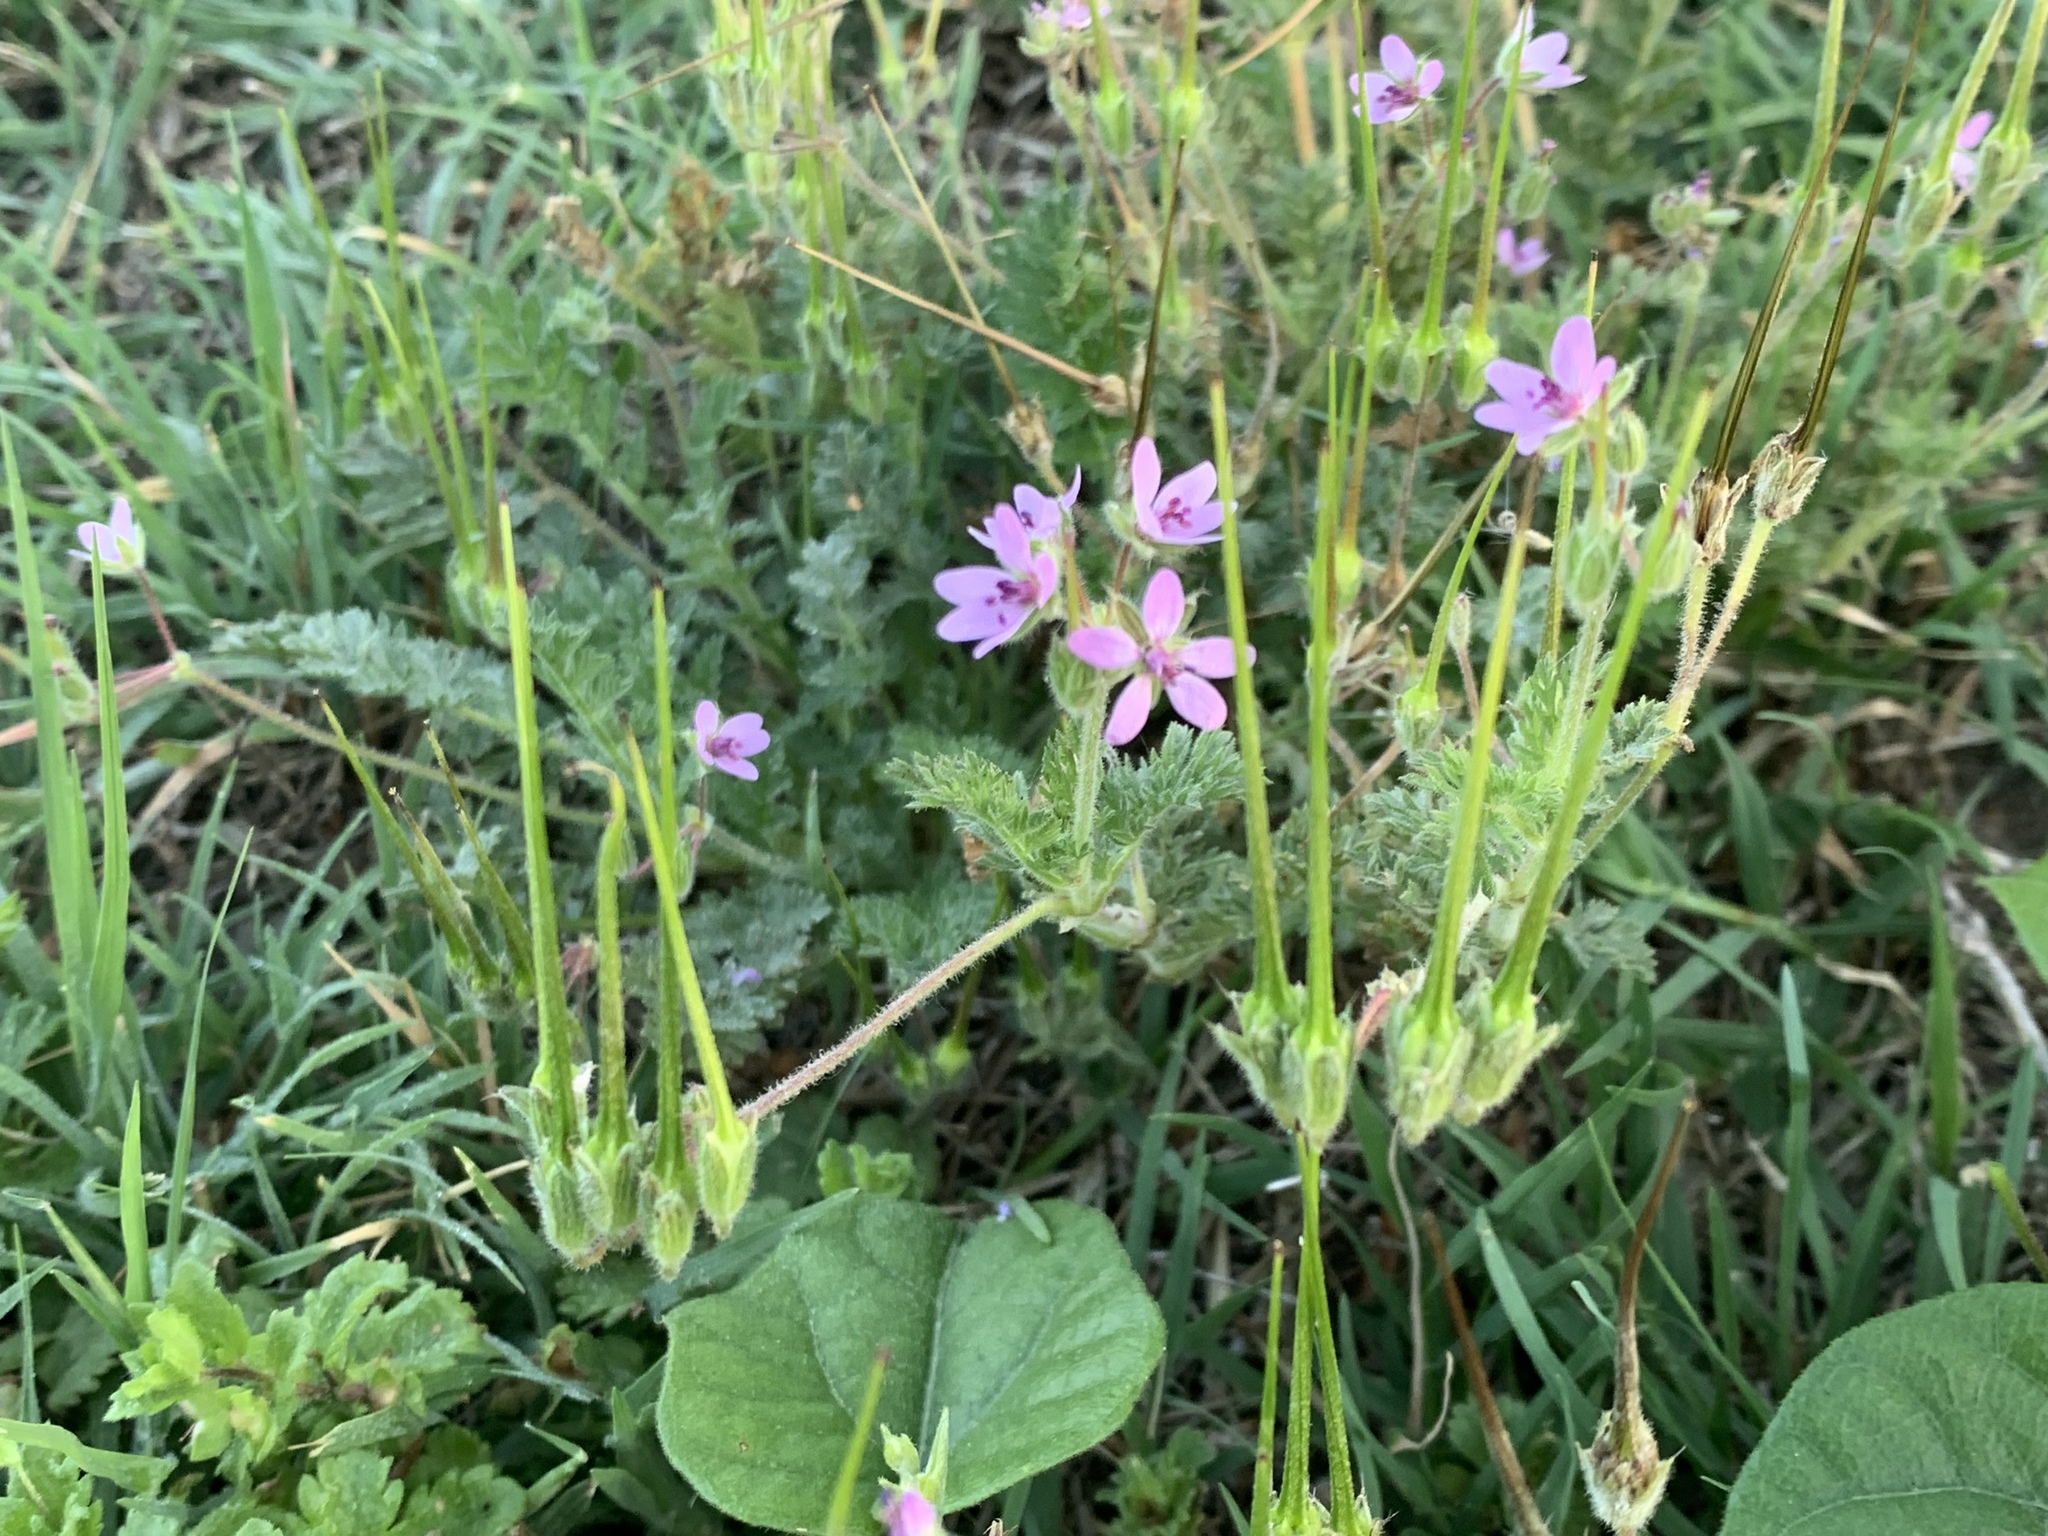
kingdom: Plantae
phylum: Tracheophyta
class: Magnoliopsida
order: Geraniales
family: Geraniaceae
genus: Erodium
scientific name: Erodium cicutarium
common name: Common stork's-bill
